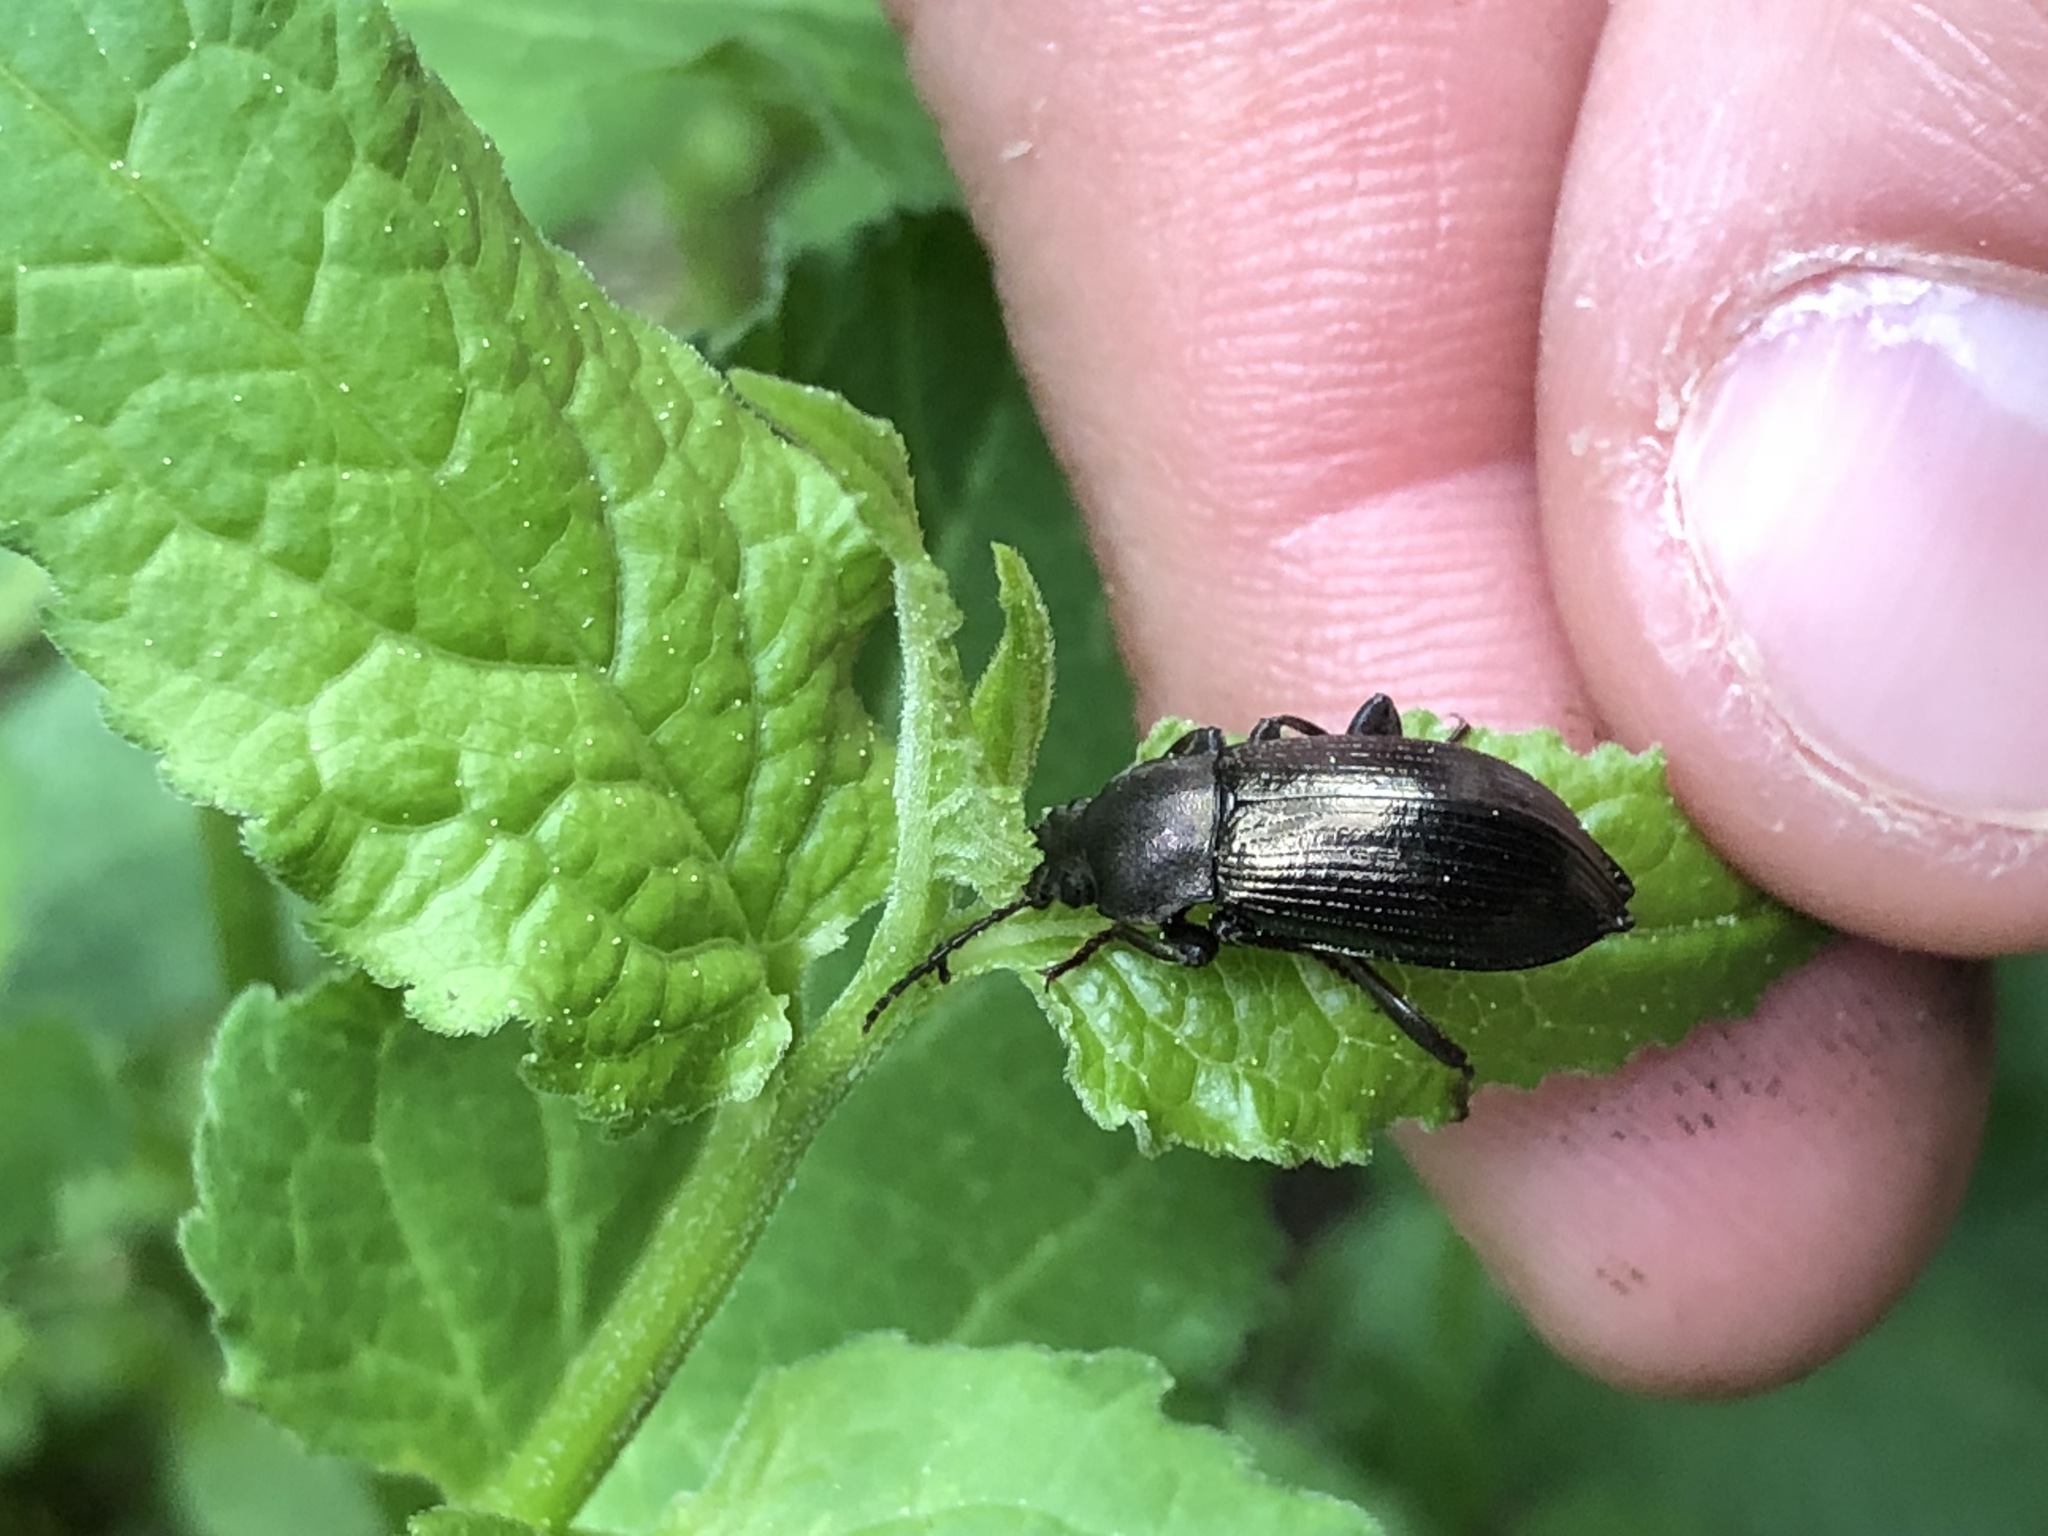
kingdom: Animalia
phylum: Arthropoda
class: Insecta
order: Coleoptera
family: Tenebrionidae
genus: Stenomax
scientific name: Stenomax aeneus
